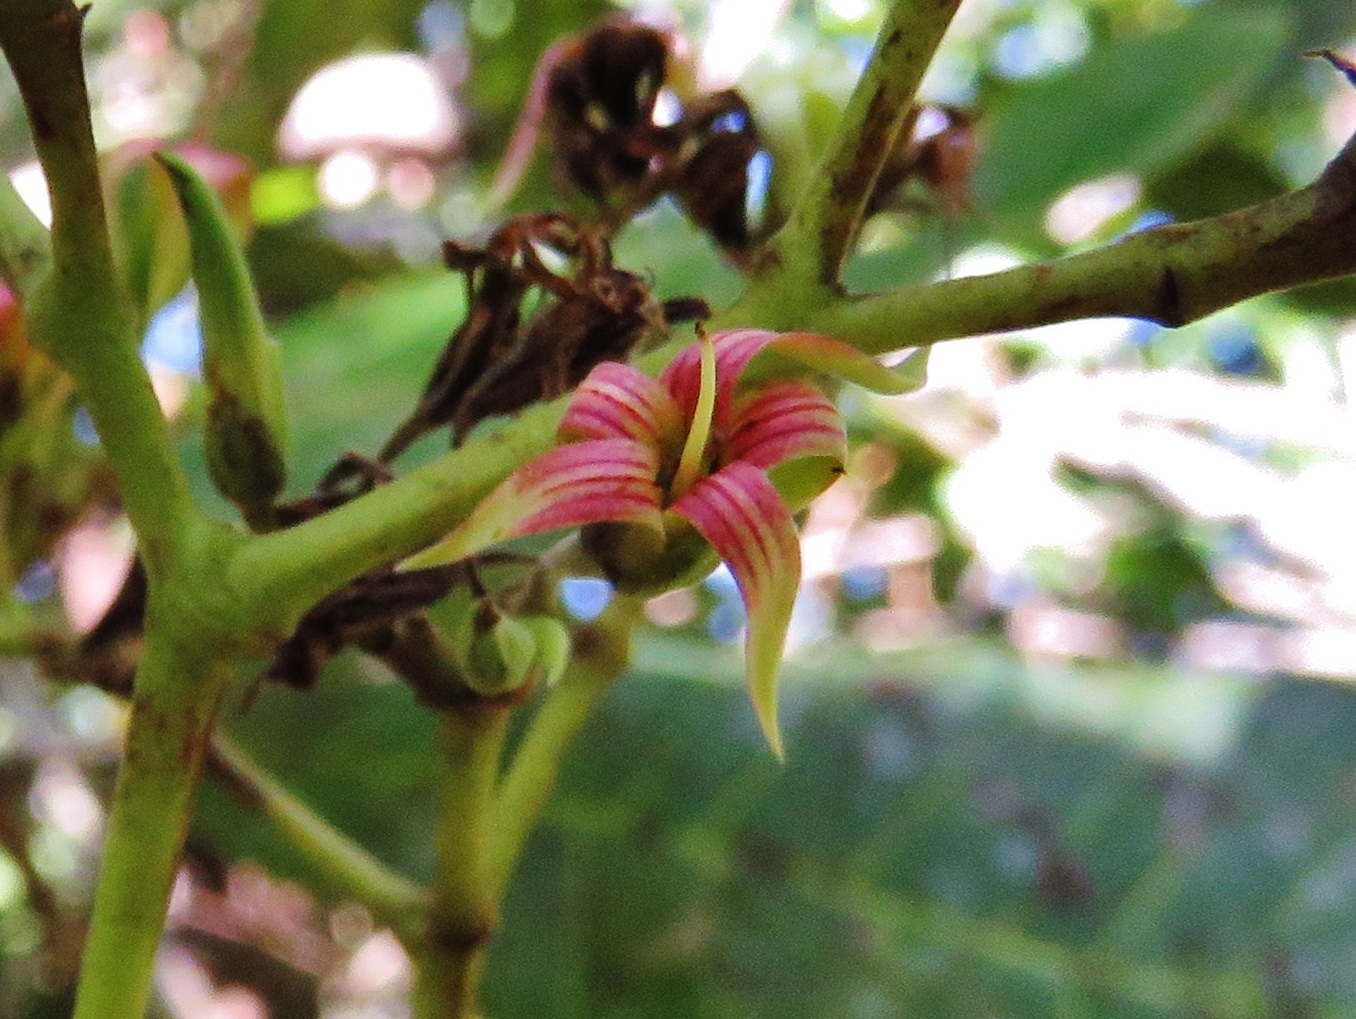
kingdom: Plantae
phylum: Tracheophyta
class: Magnoliopsida
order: Sapindales
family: Anacardiaceae
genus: Anacardium
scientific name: Anacardium occidentale
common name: Cashew
